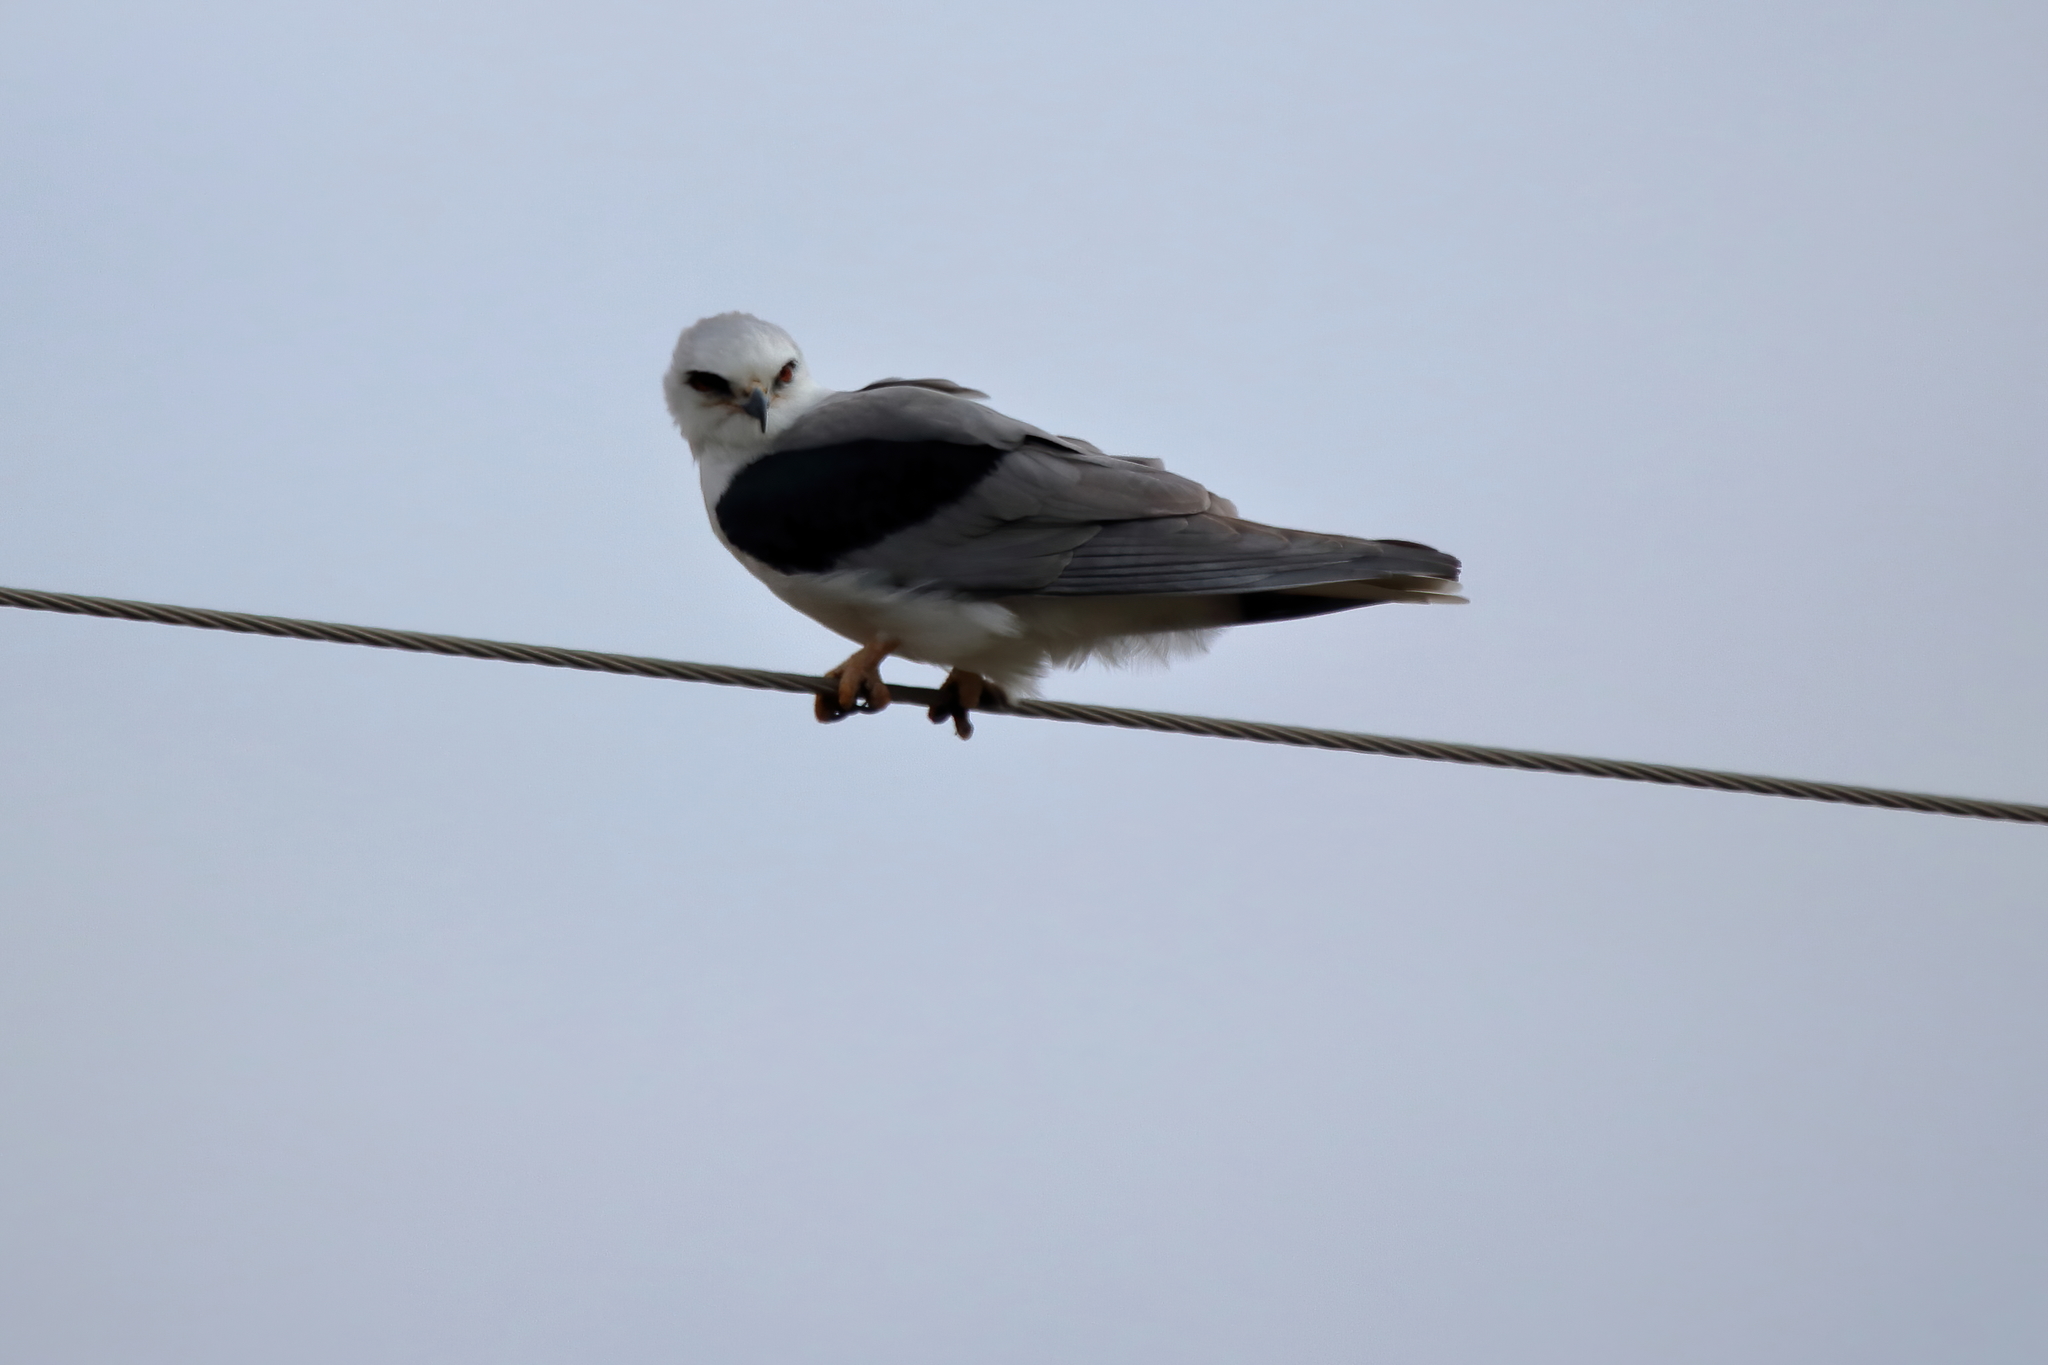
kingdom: Animalia
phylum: Chordata
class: Aves
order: Accipitriformes
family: Accipitridae
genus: Elanus
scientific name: Elanus leucurus
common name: White-tailed kite
